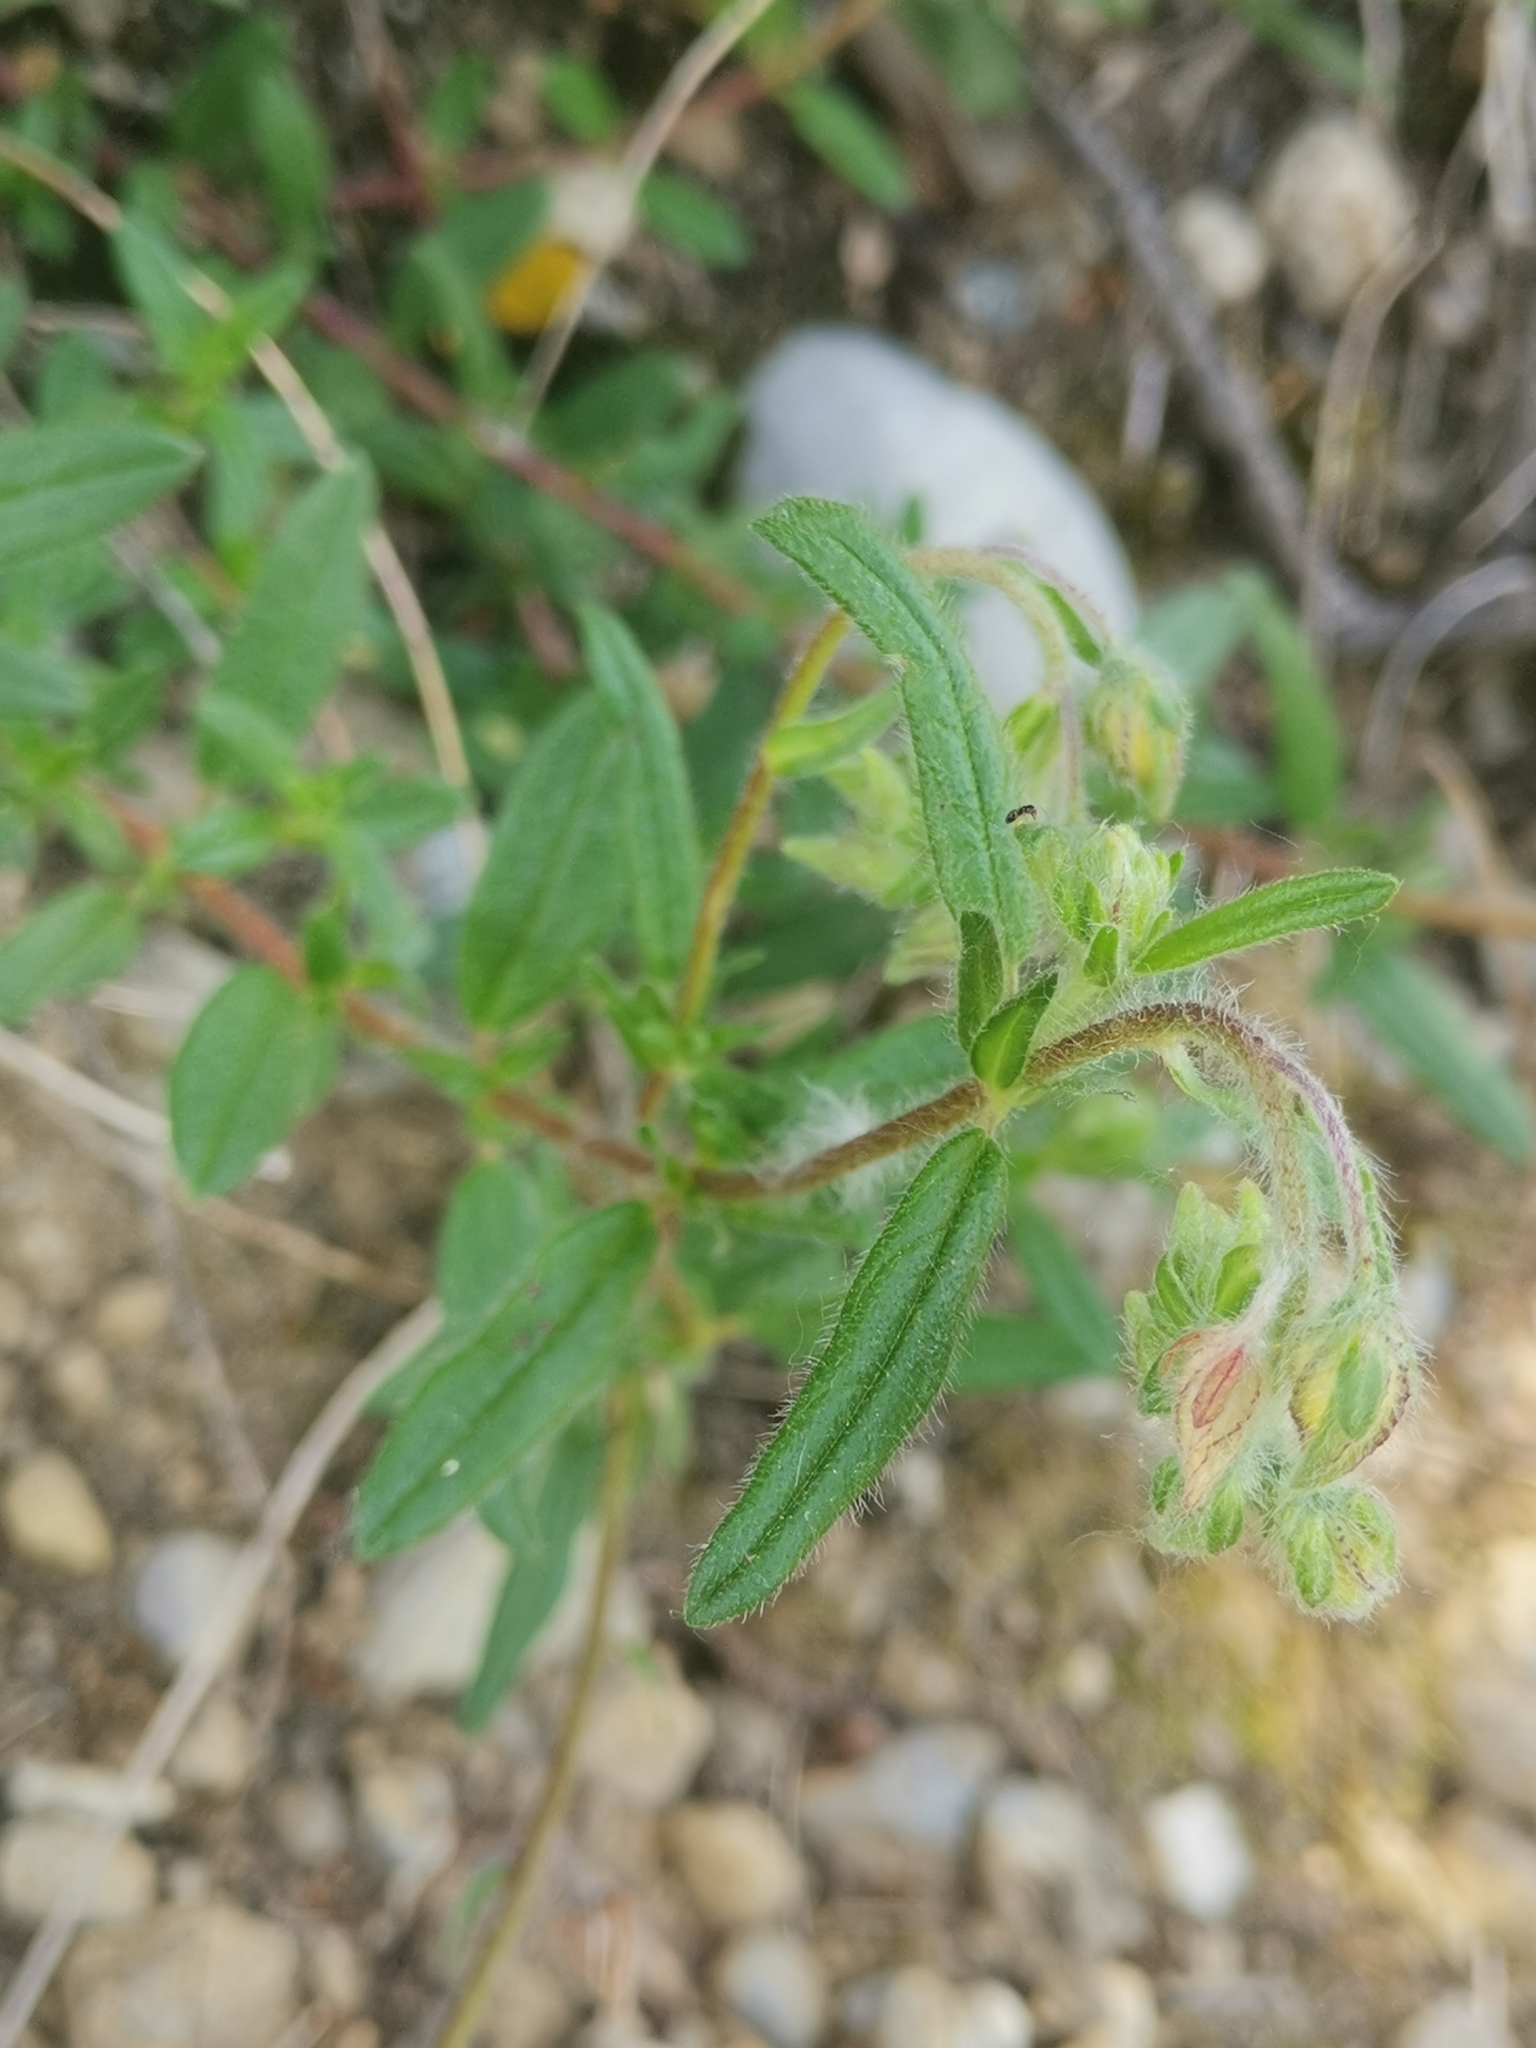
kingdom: Plantae
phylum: Tracheophyta
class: Magnoliopsida
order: Malvales
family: Cistaceae
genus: Helianthemum
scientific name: Helianthemum nummularium
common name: Common rock-rose
